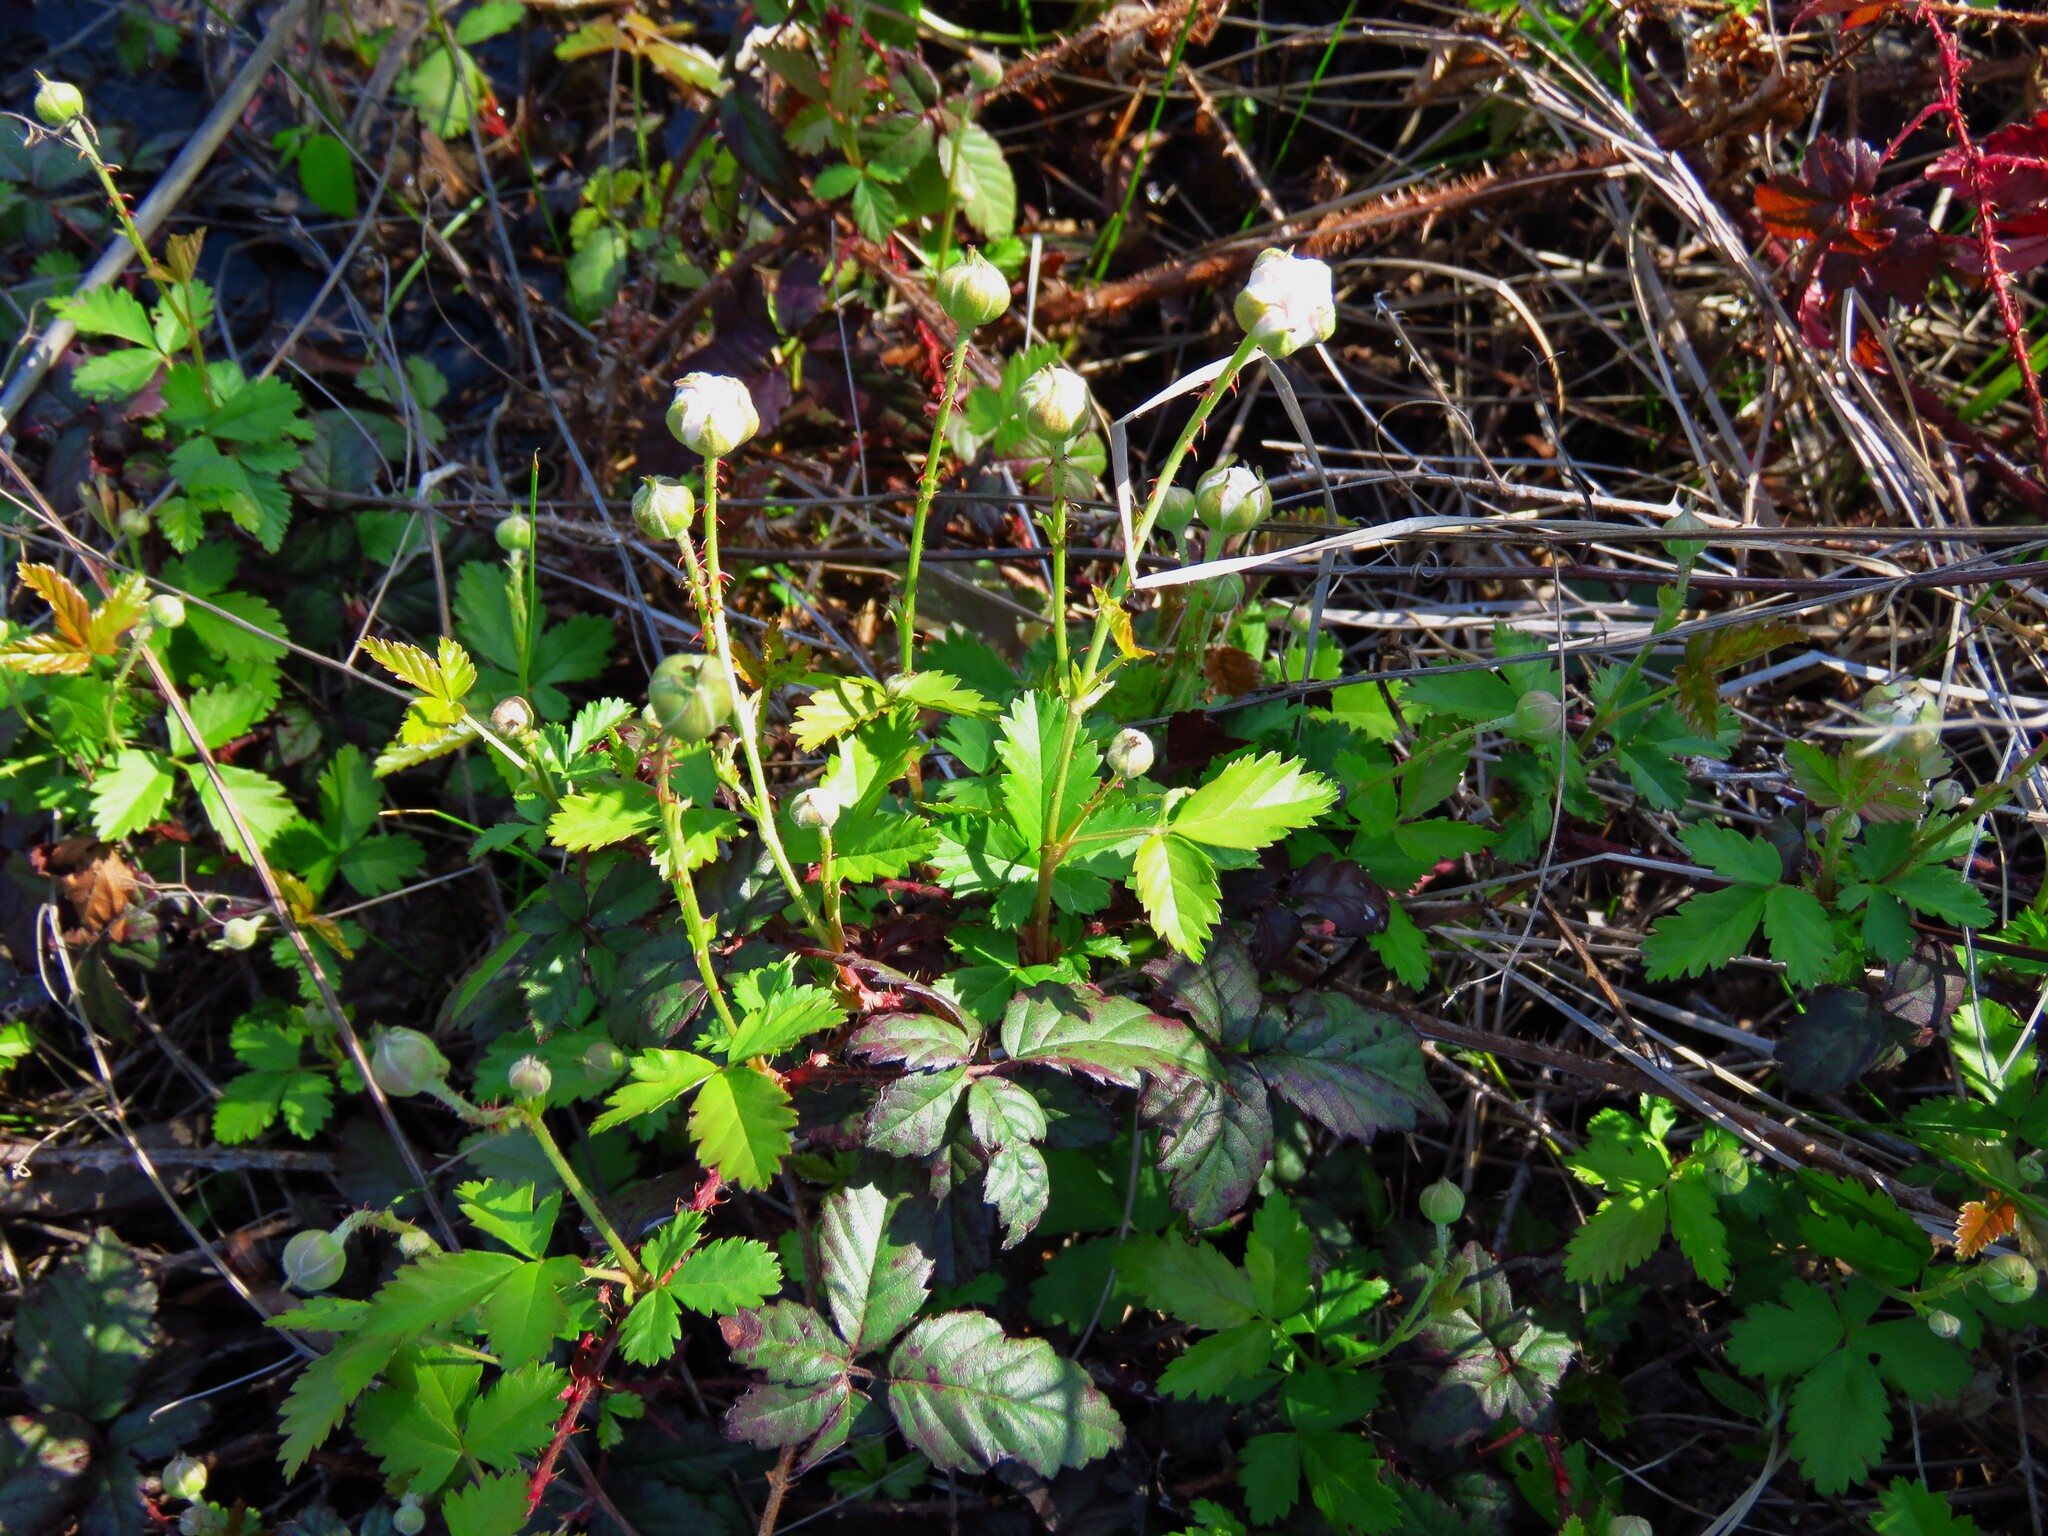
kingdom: Plantae
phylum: Tracheophyta
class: Magnoliopsida
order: Rosales
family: Rosaceae
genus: Rubus
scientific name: Rubus trivialis
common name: Southern dewberry
